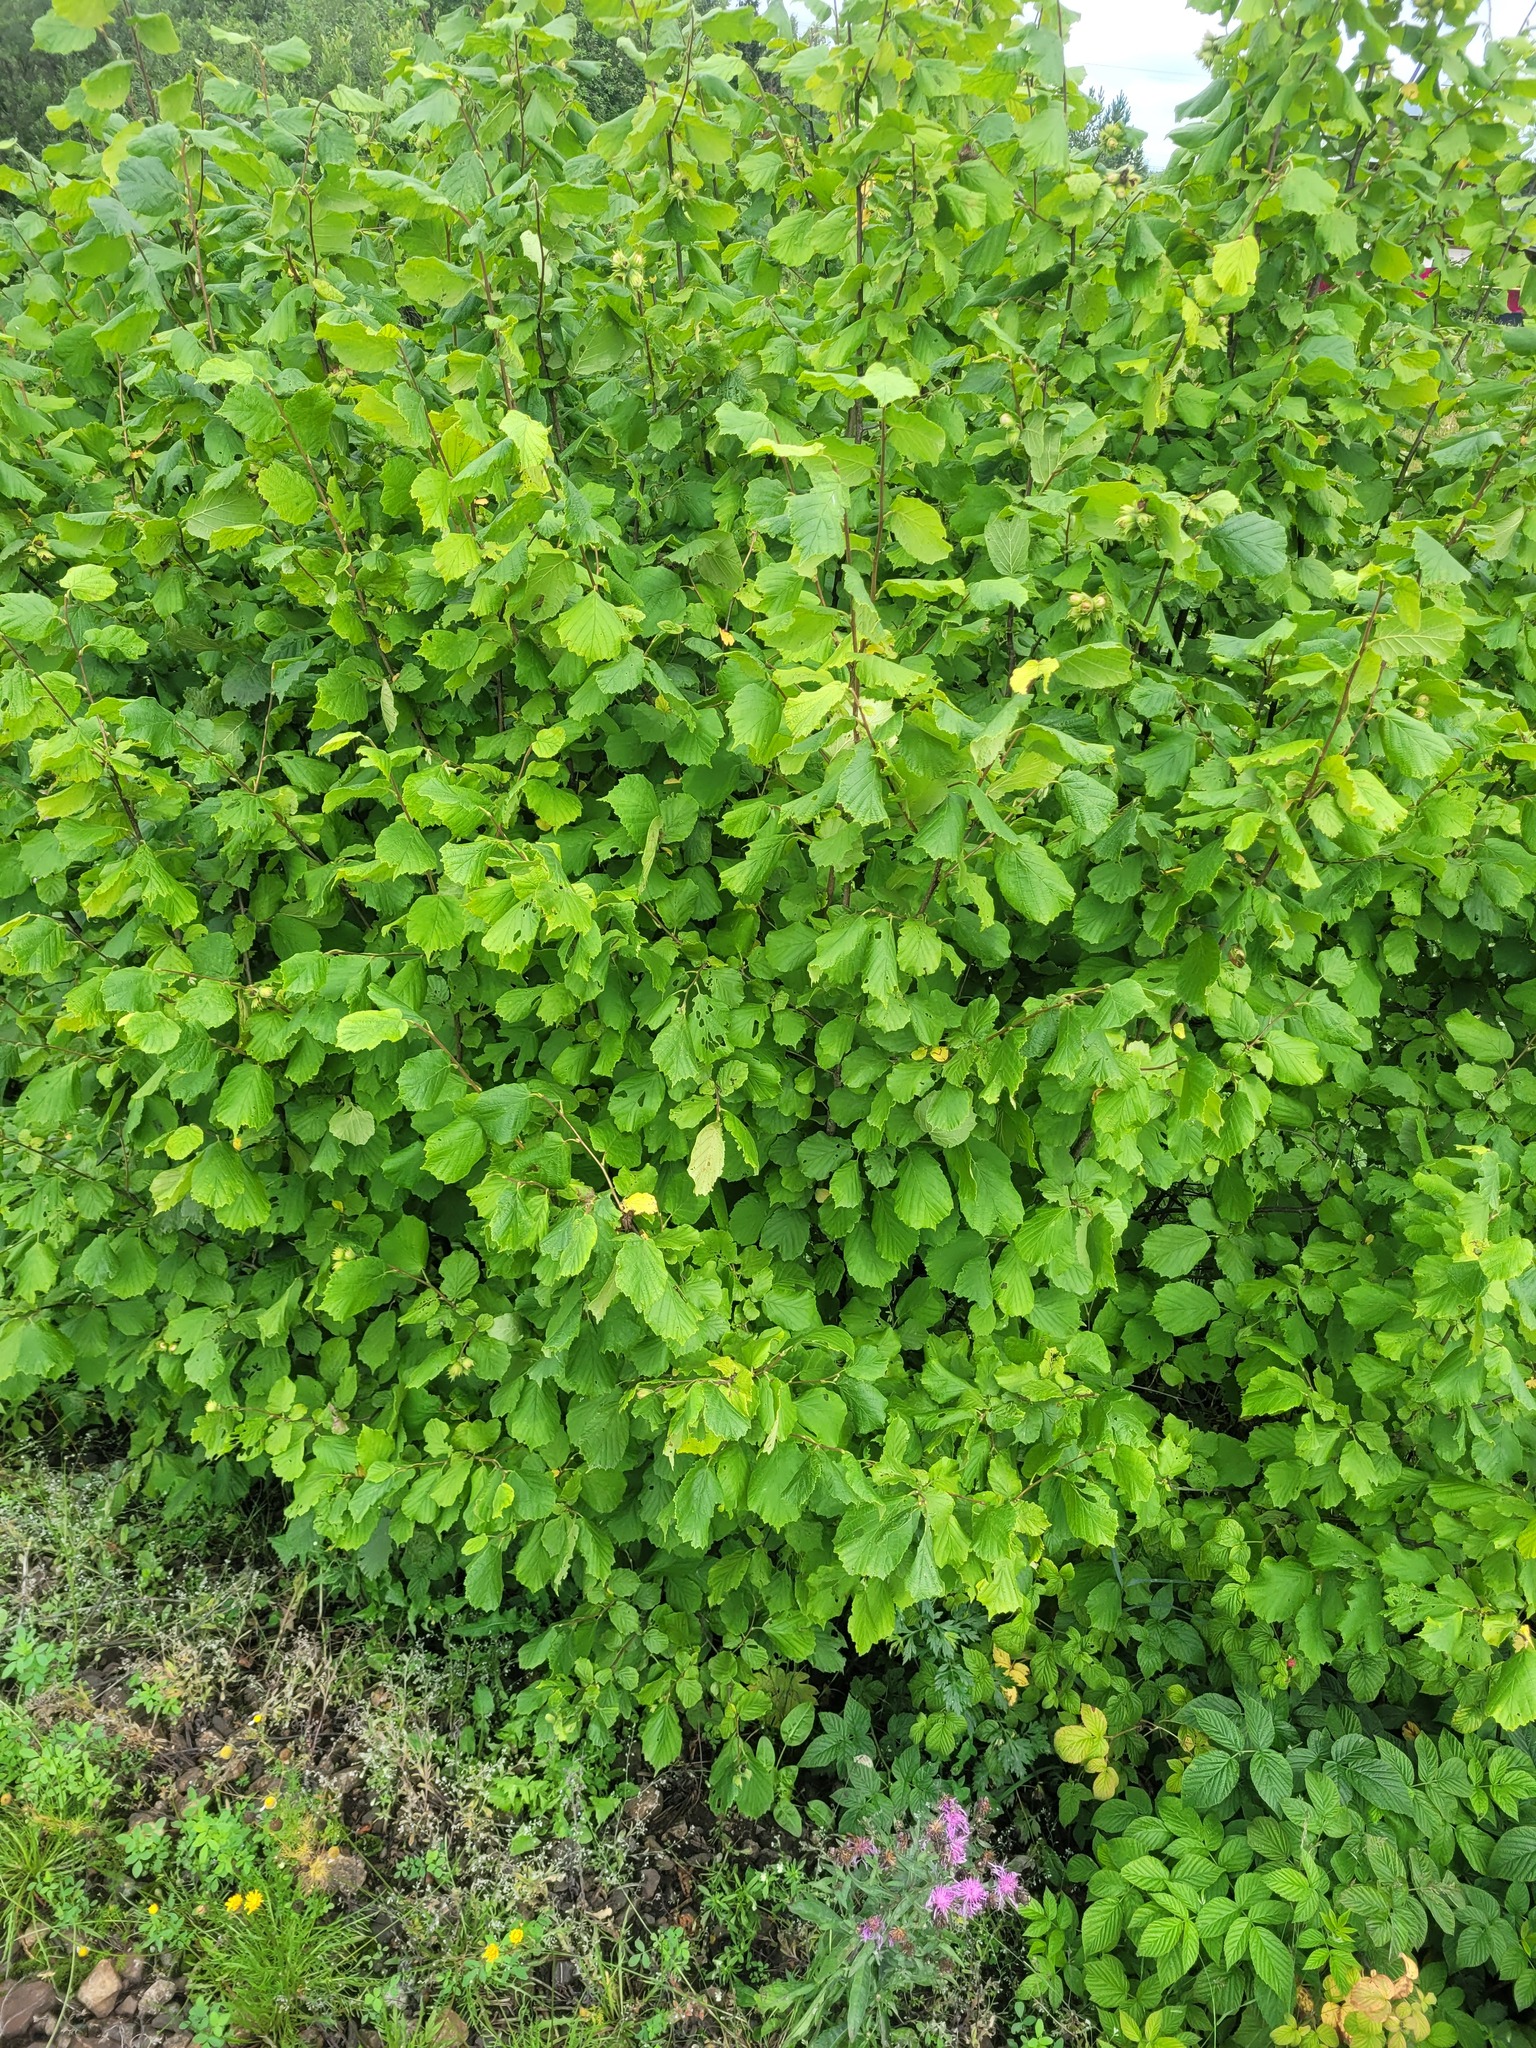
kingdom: Plantae
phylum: Tracheophyta
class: Magnoliopsida
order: Fagales
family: Betulaceae
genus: Corylus
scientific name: Corylus avellana
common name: European hazel
